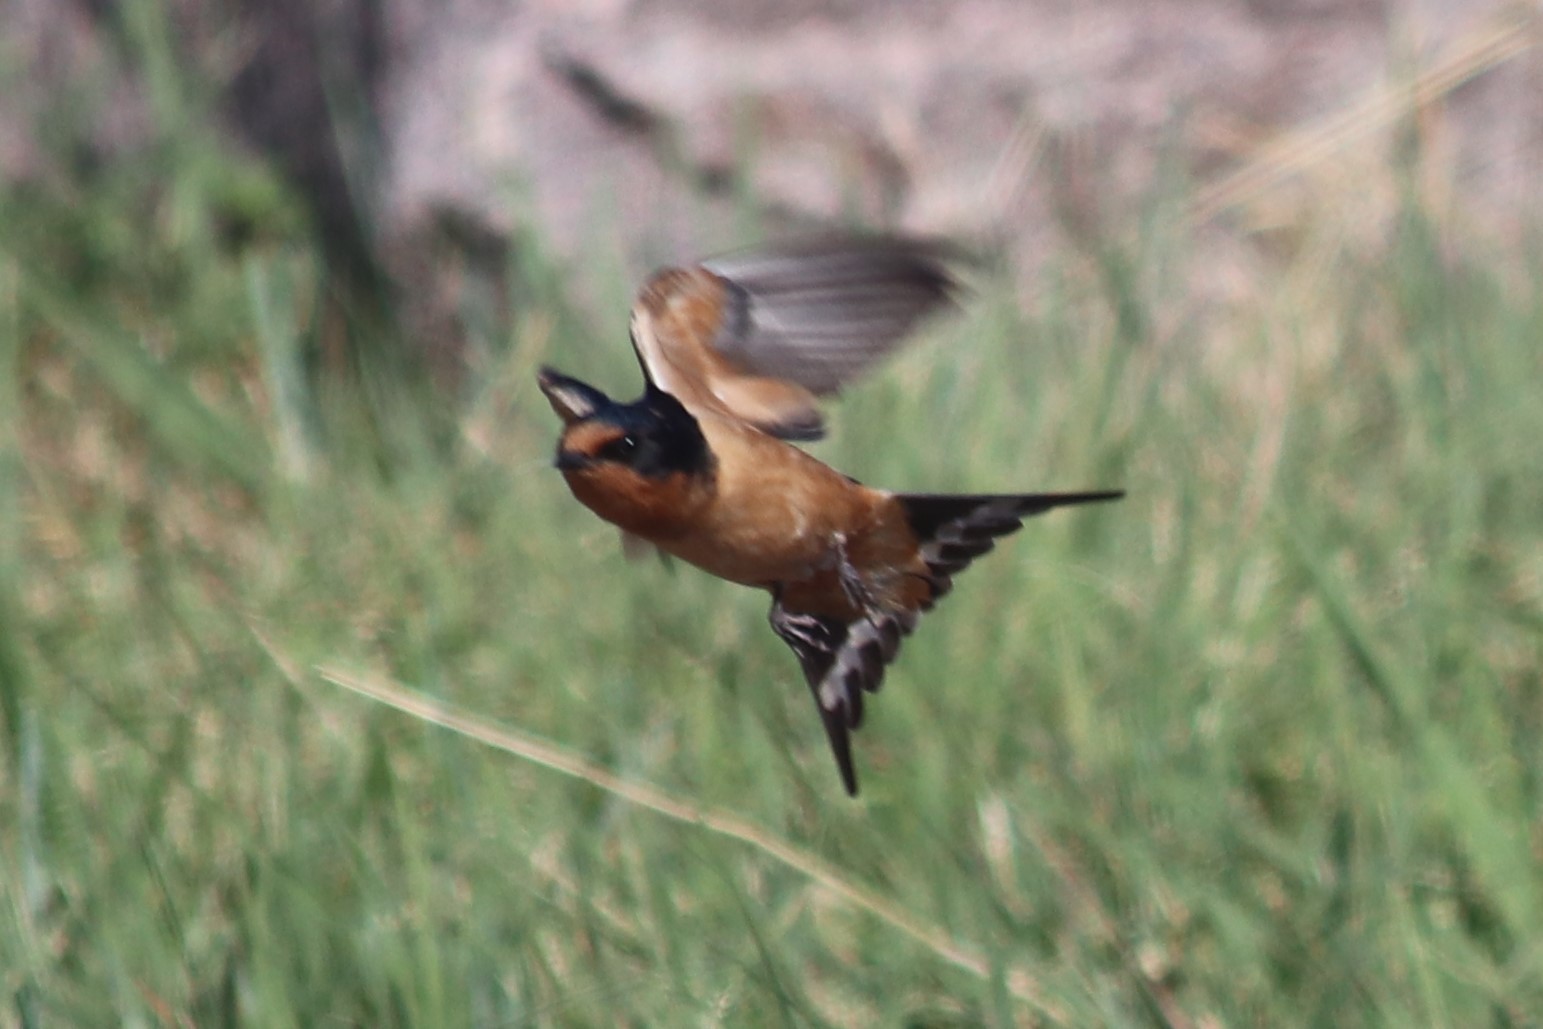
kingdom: Animalia
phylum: Chordata
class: Aves
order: Passeriformes
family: Hirundinidae
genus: Hirundo
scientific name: Hirundo rustica
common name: Barn swallow
